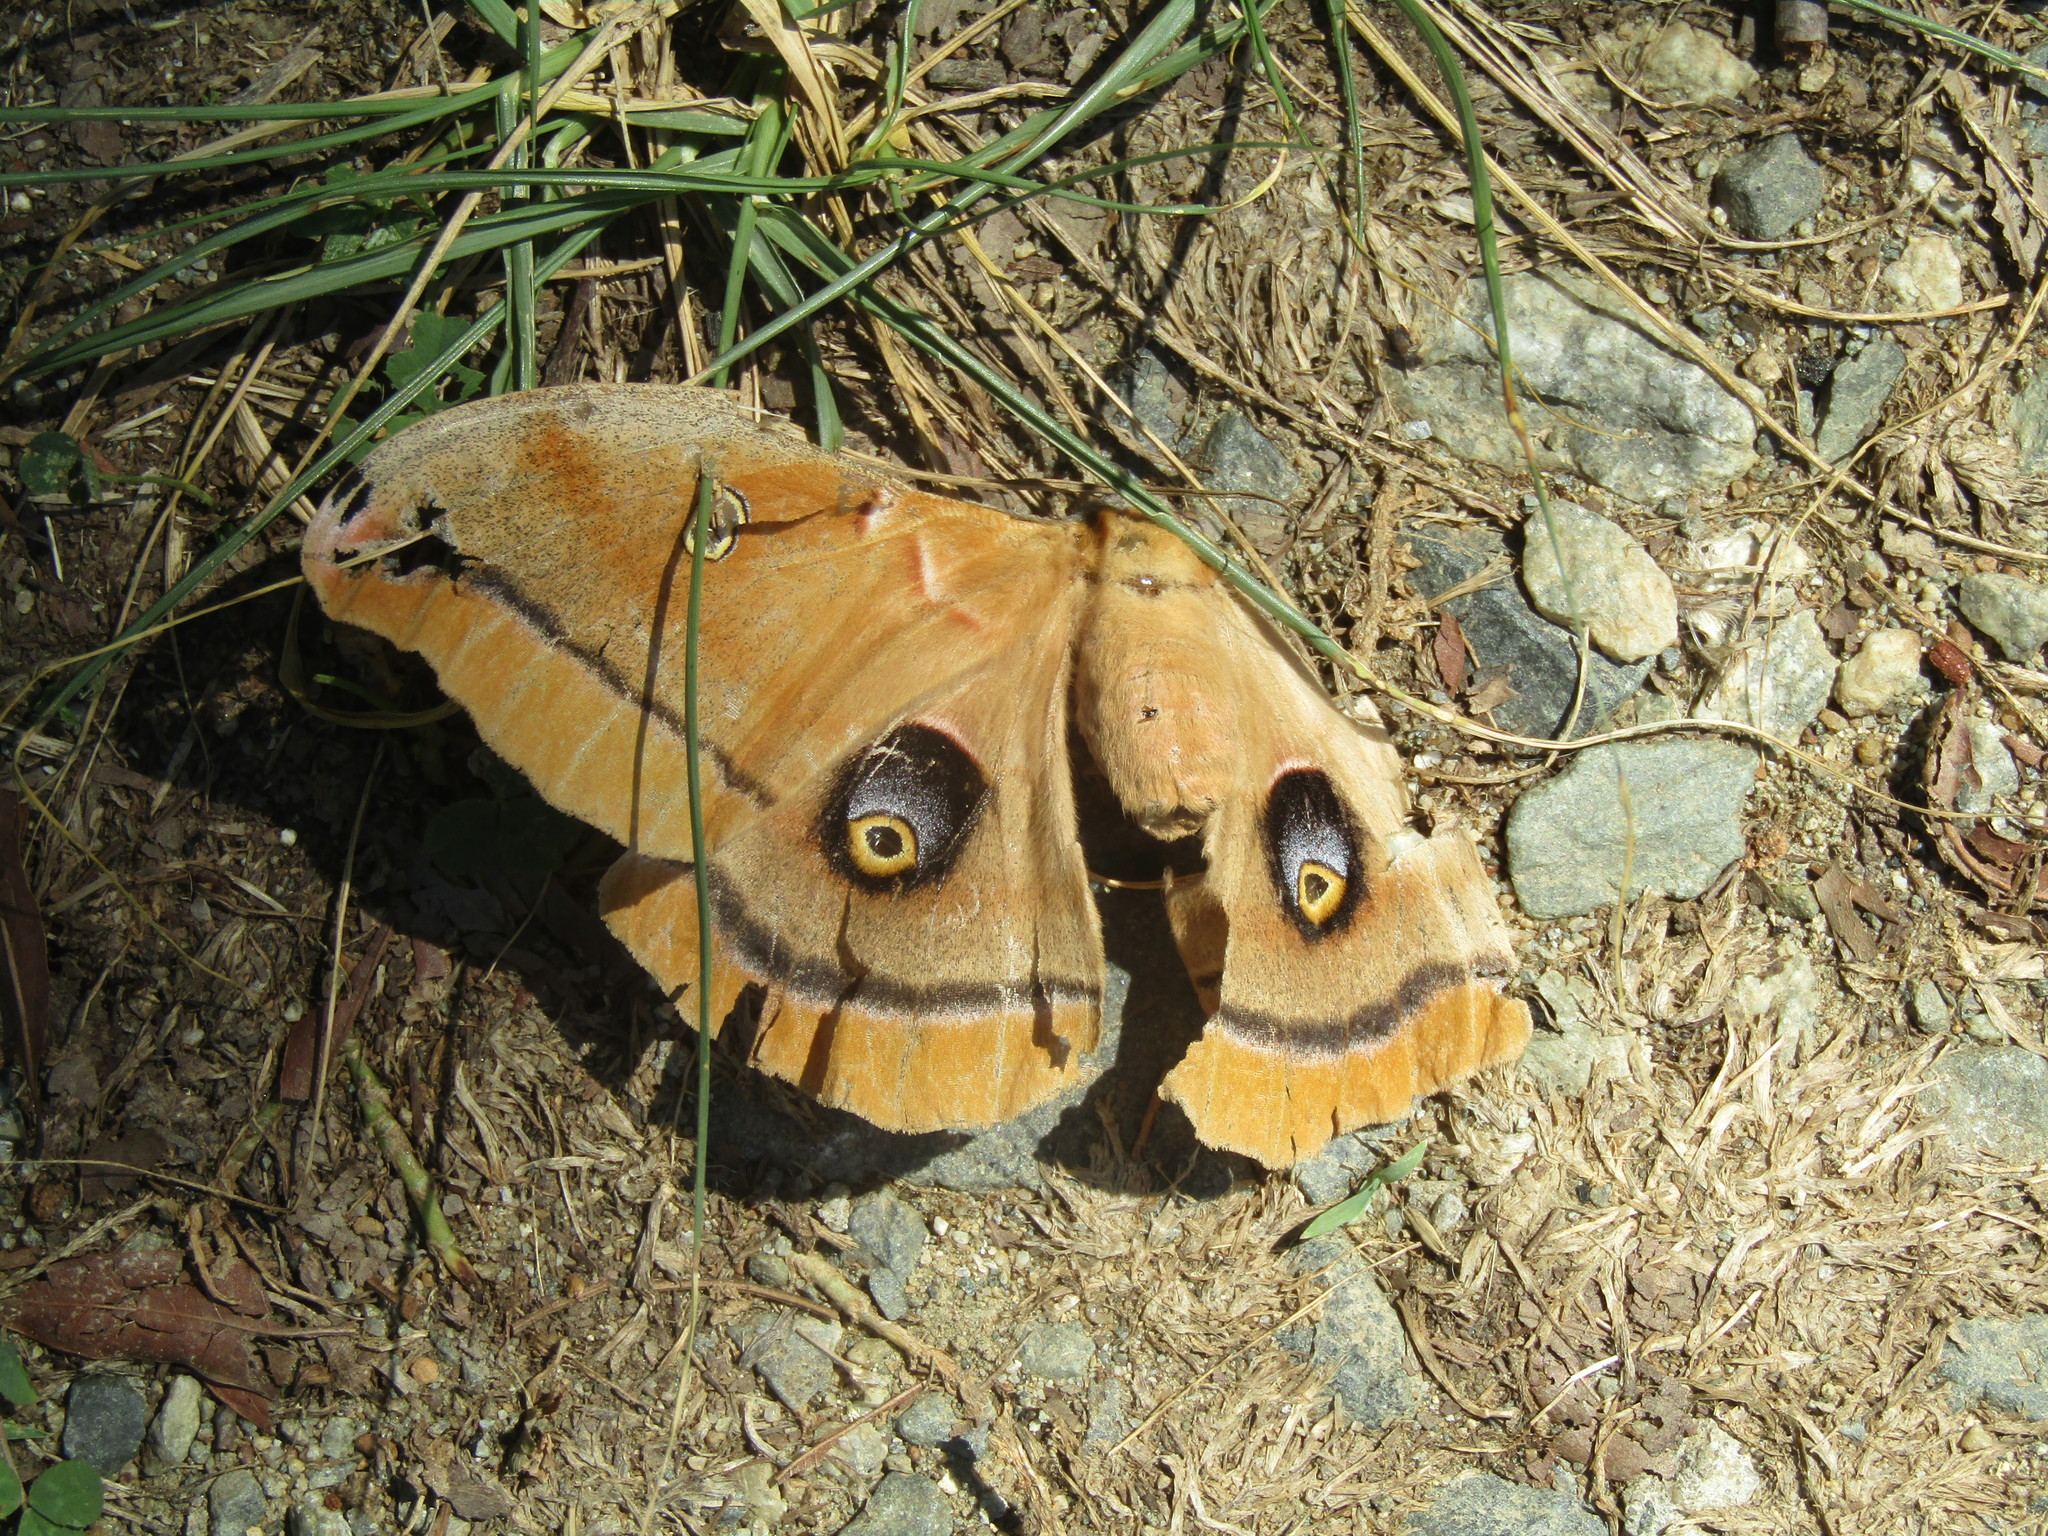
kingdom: Animalia
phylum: Arthropoda
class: Insecta
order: Lepidoptera
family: Saturniidae
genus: Antheraea
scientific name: Antheraea polyphemus
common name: Polyphemus moth
